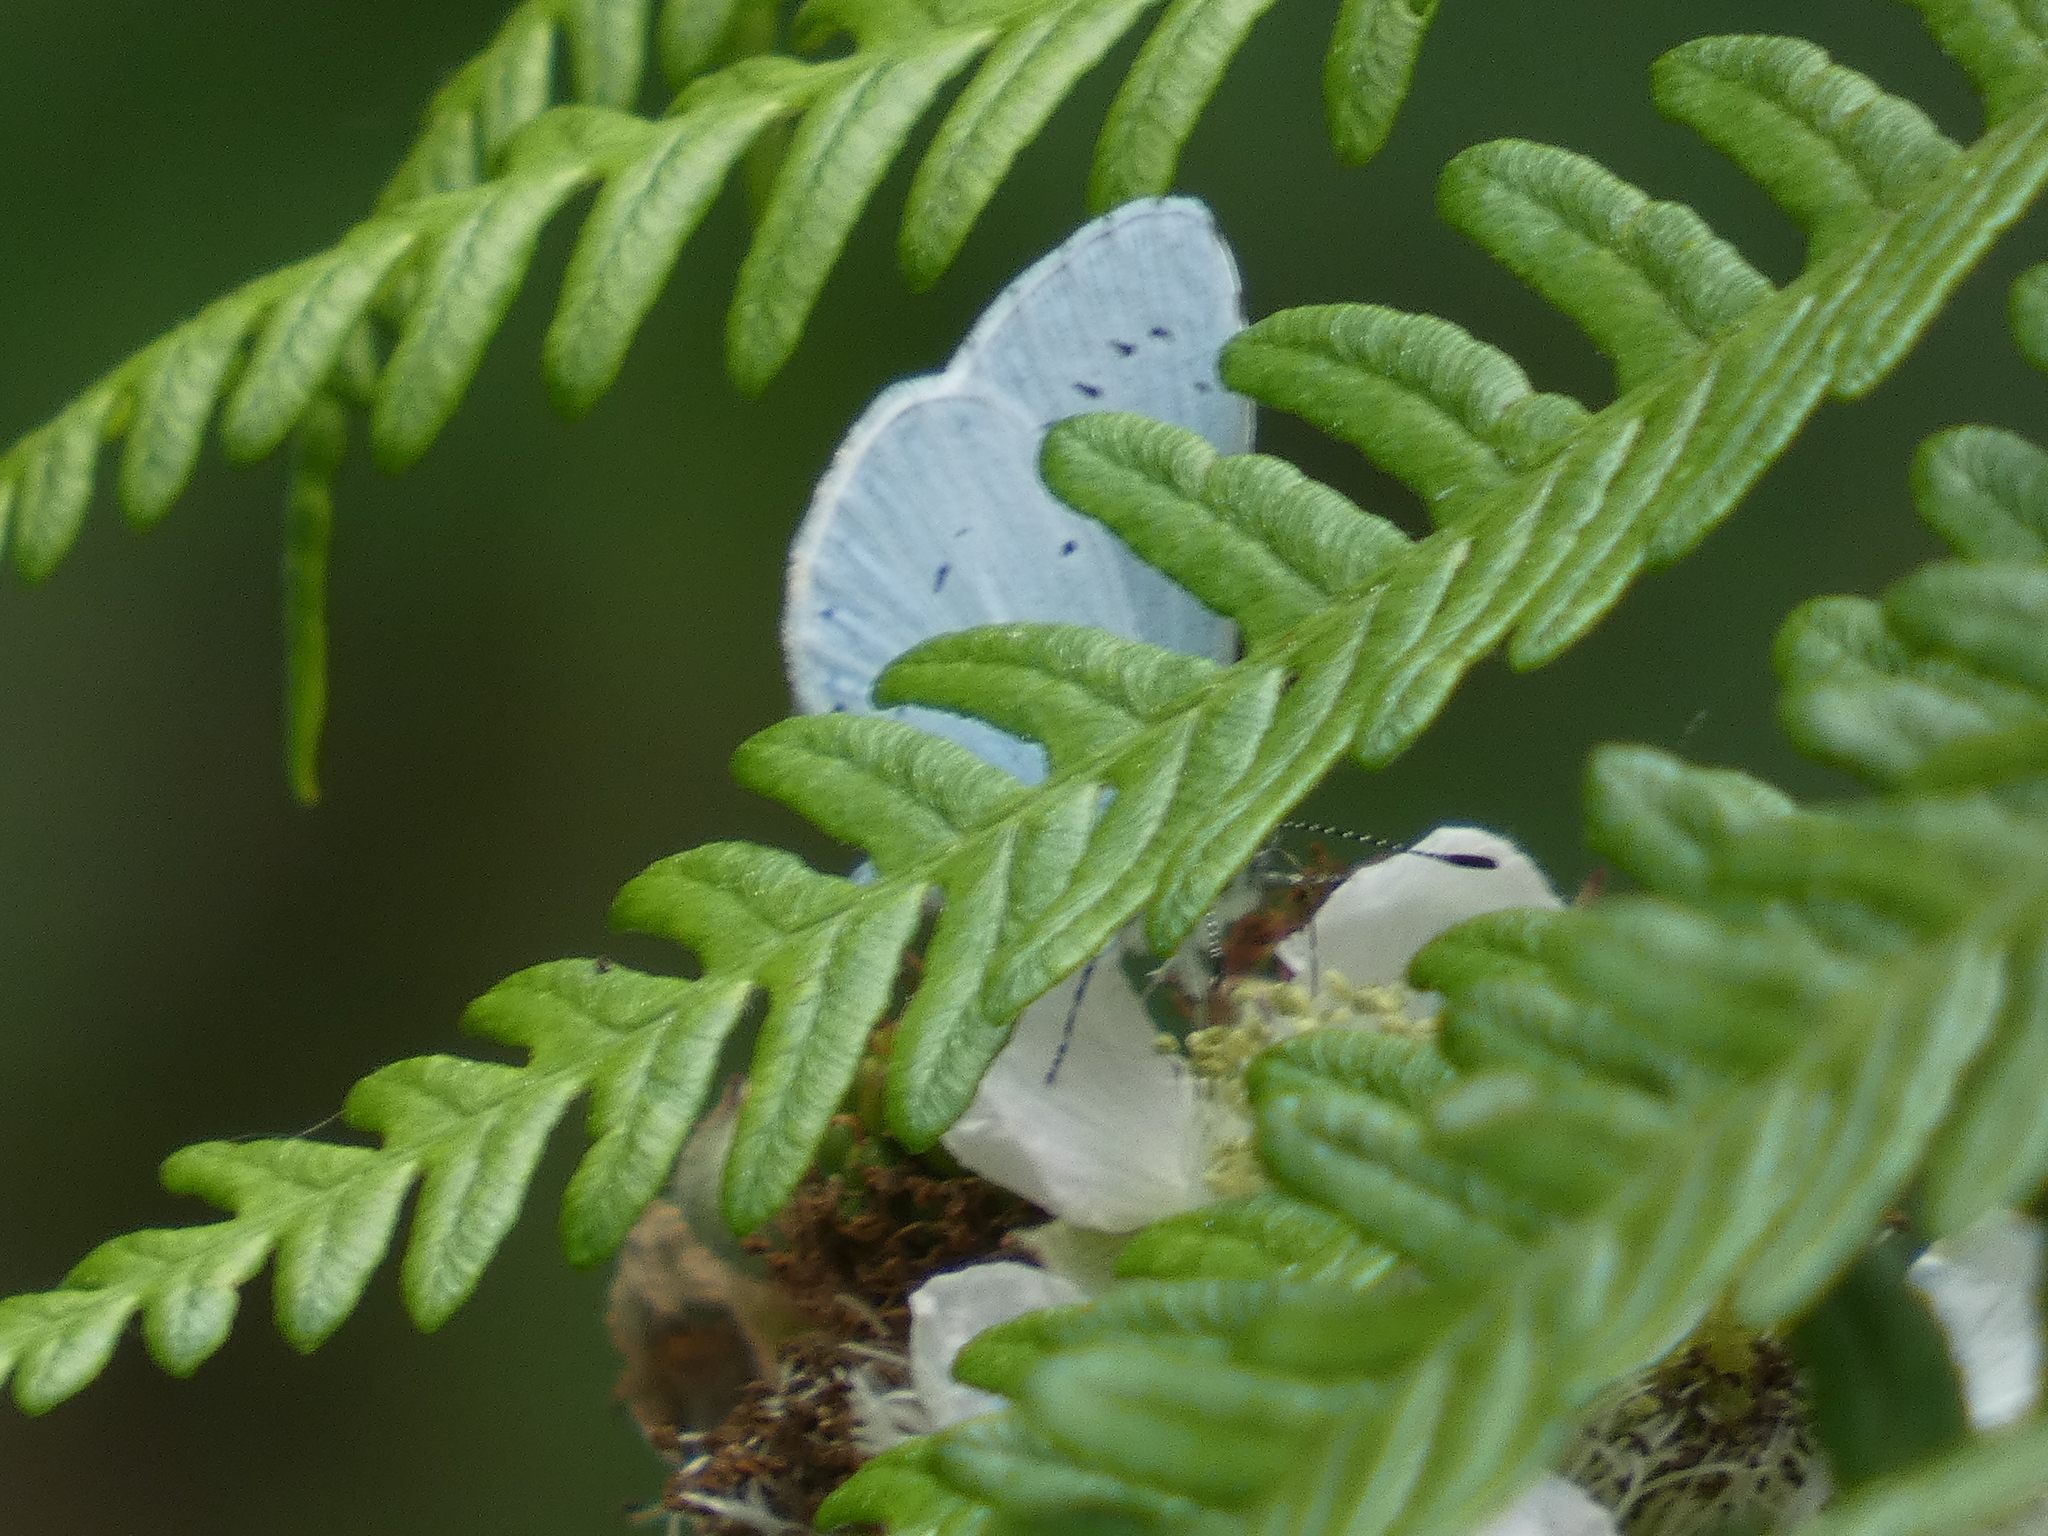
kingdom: Animalia
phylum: Arthropoda
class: Insecta
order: Lepidoptera
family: Lycaenidae
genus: Celastrina
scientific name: Celastrina argiolus
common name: Holly blue
